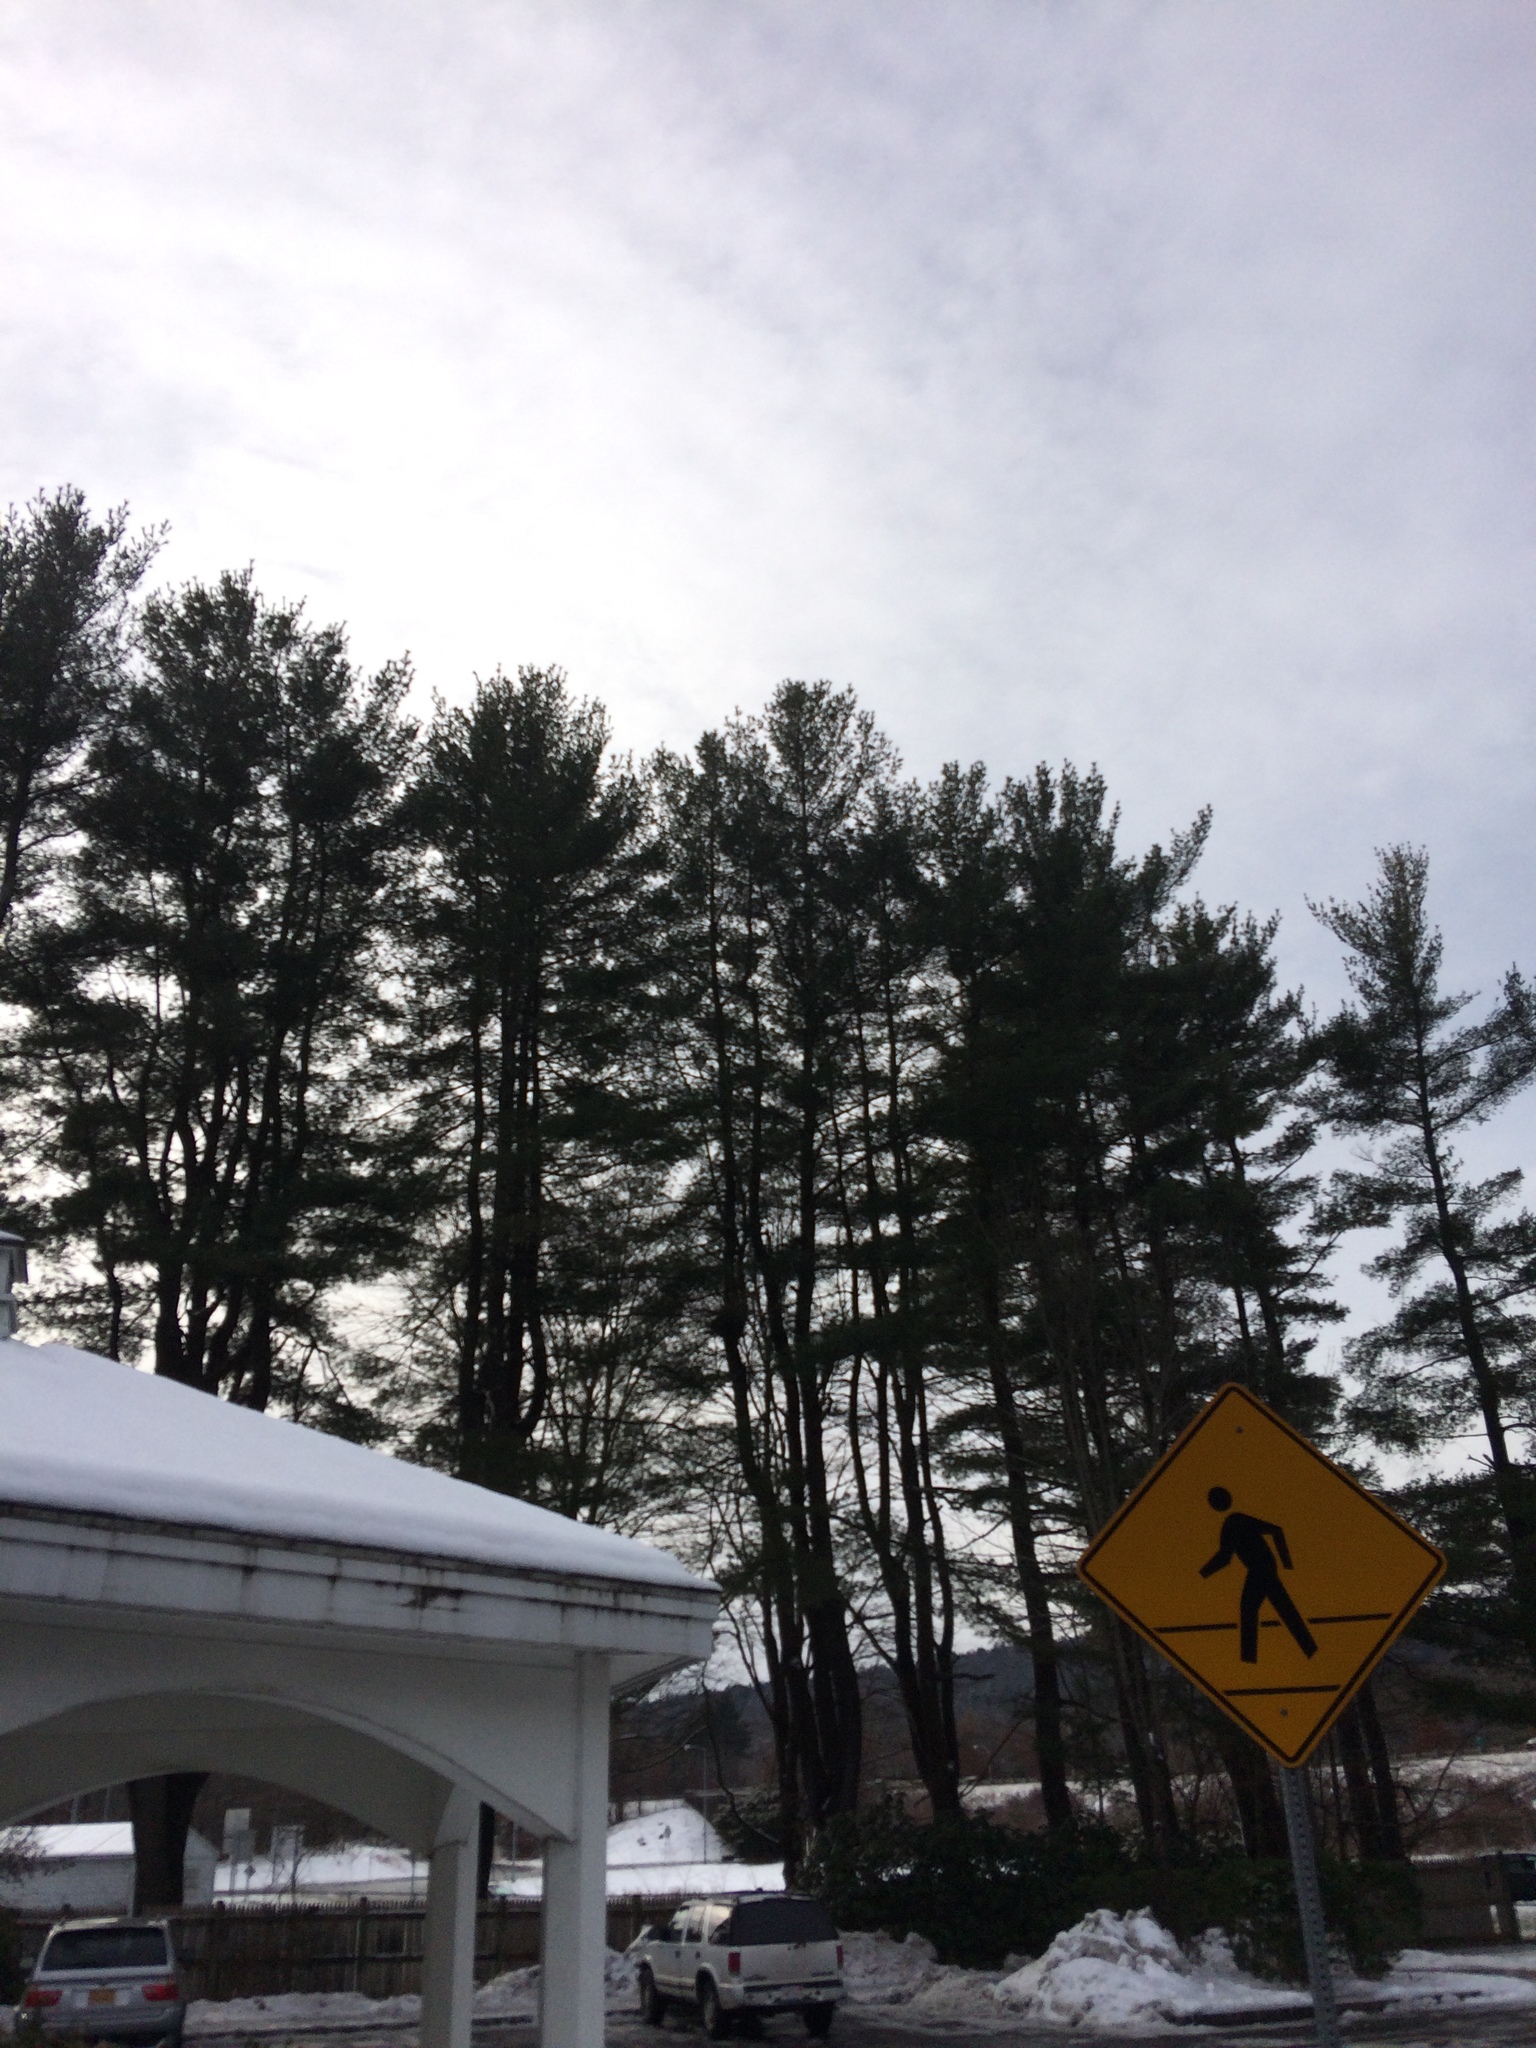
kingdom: Plantae
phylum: Tracheophyta
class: Pinopsida
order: Pinales
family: Pinaceae
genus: Pinus
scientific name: Pinus strobus
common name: Weymouth pine
